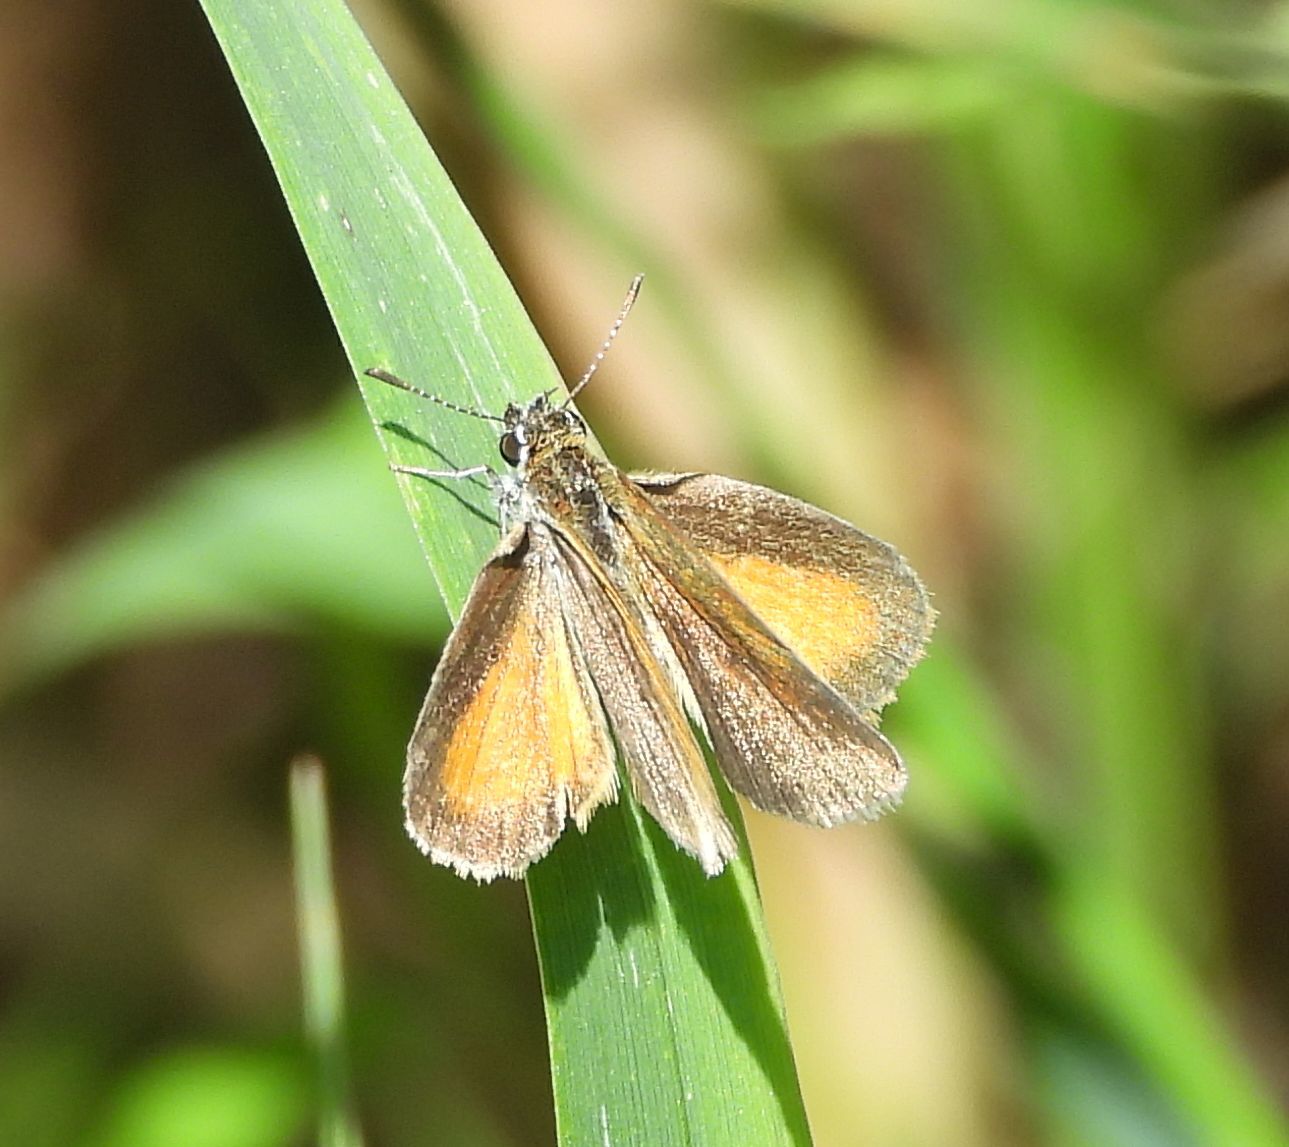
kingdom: Animalia
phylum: Arthropoda
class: Insecta
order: Lepidoptera
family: Hesperiidae
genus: Ancyloxypha
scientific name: Ancyloxypha numitor
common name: Least skipper
